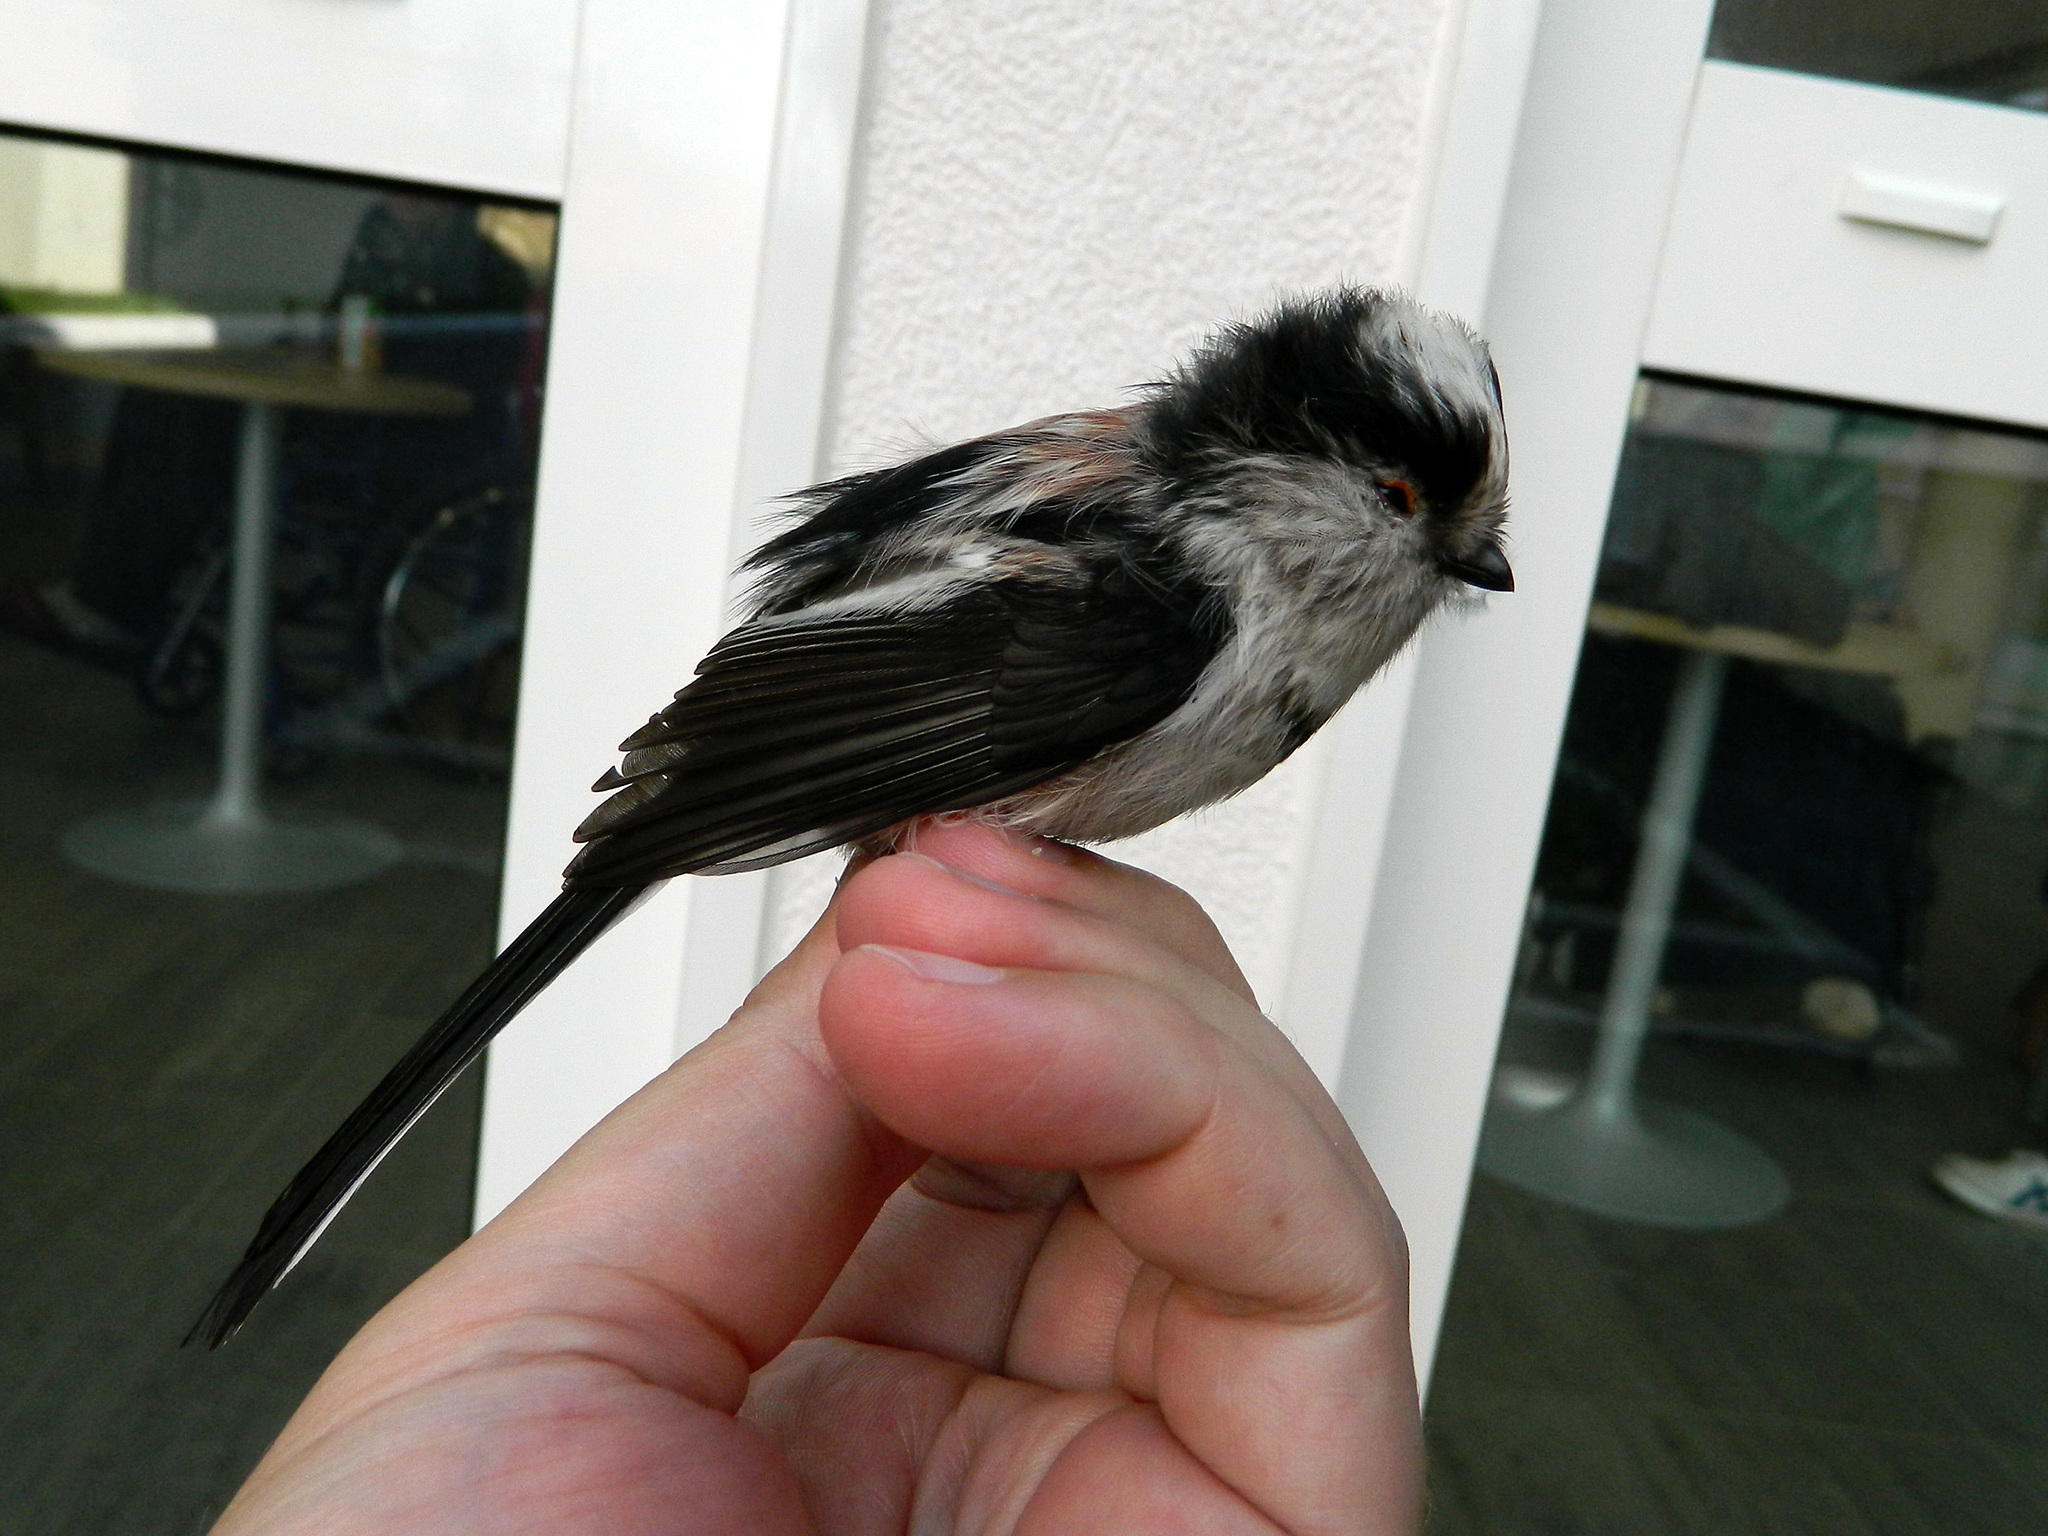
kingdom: Animalia
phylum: Chordata
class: Aves
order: Passeriformes
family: Aegithalidae
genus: Aegithalos
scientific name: Aegithalos caudatus
